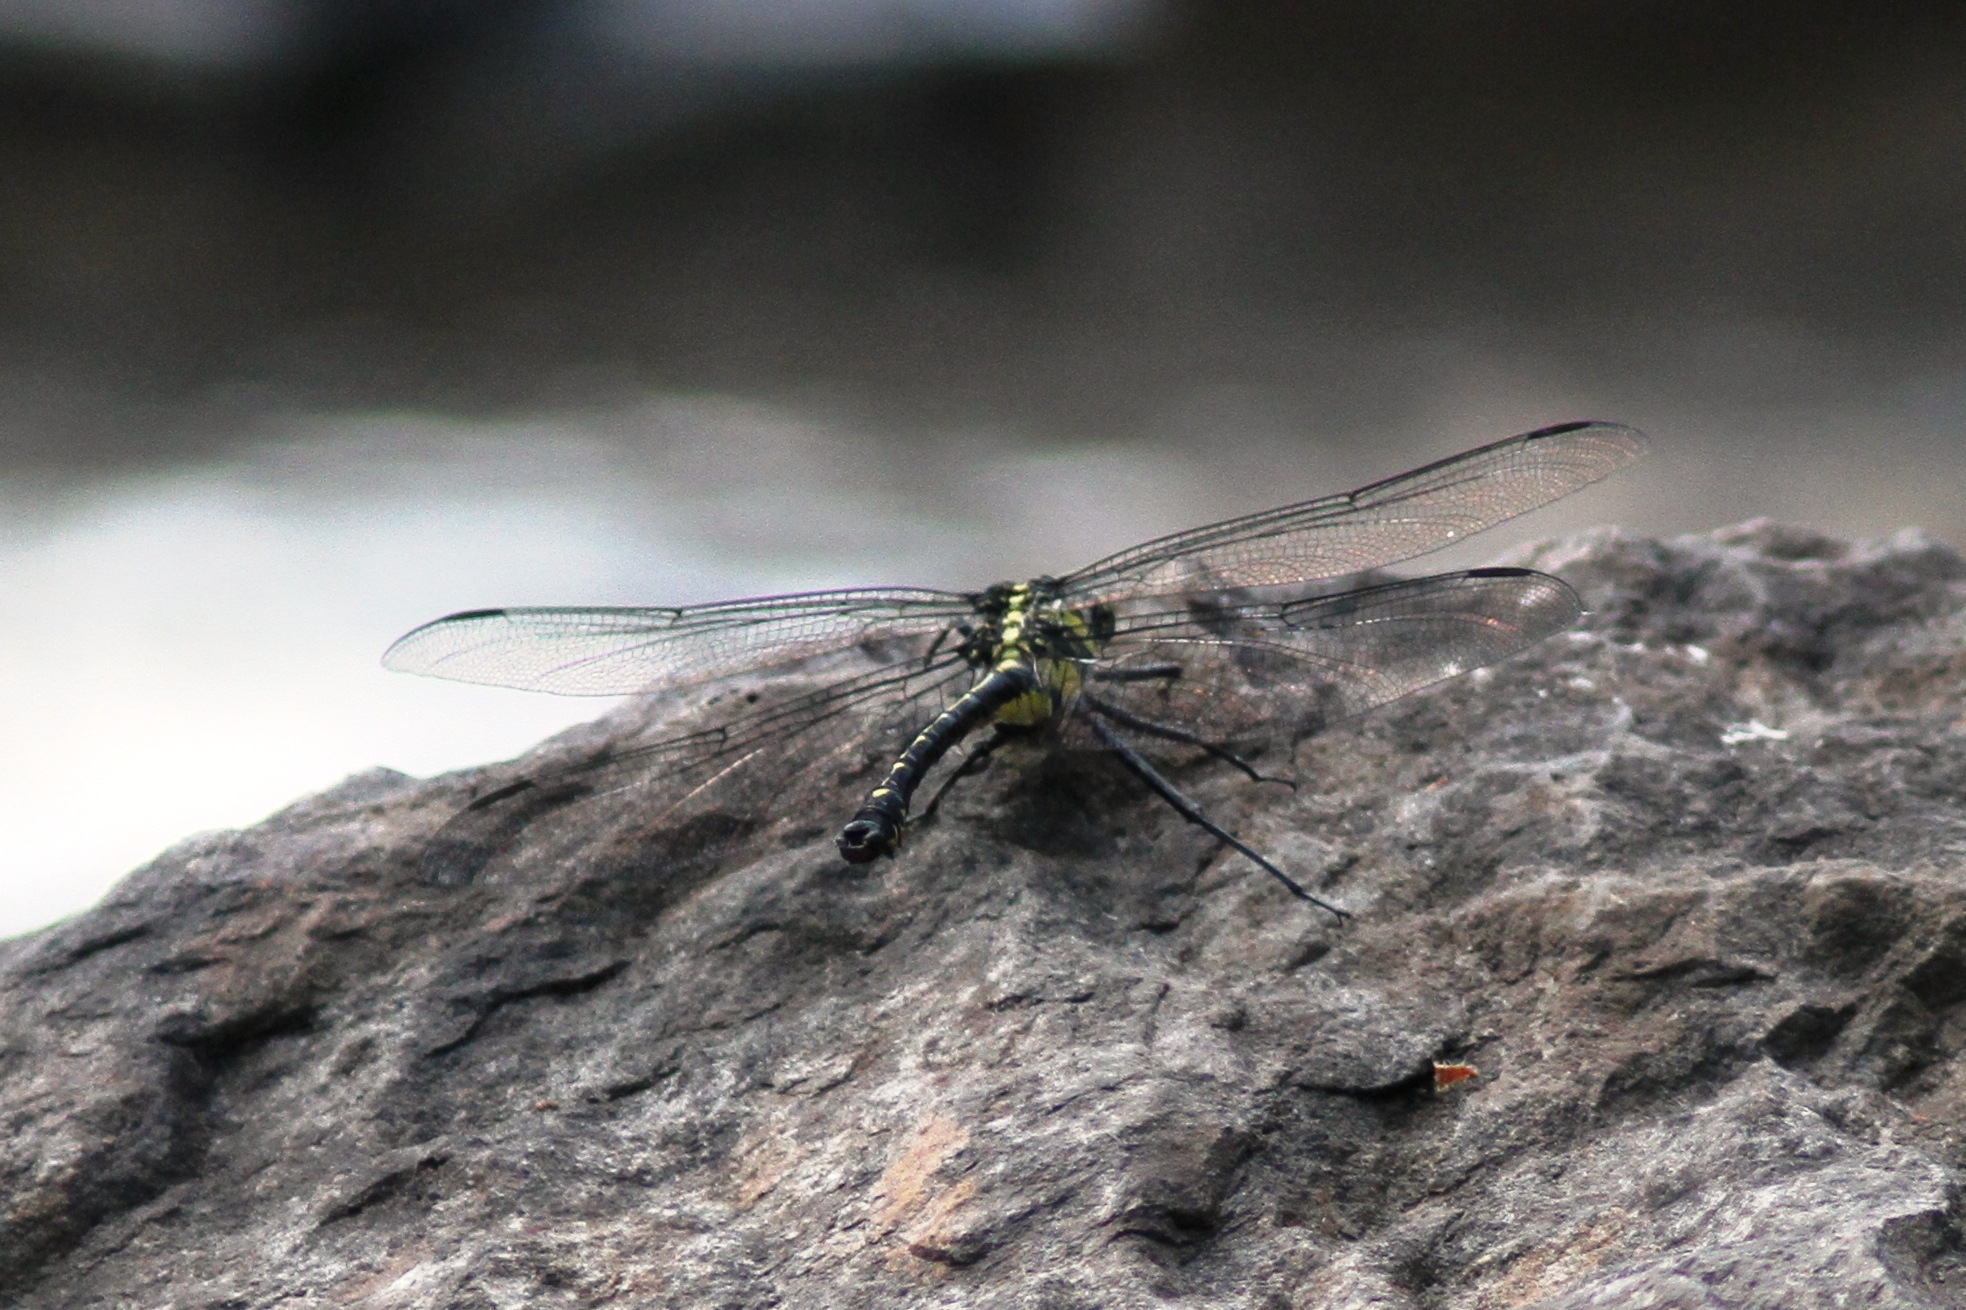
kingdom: Animalia
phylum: Arthropoda
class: Insecta
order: Odonata
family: Gomphidae
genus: Hagenius
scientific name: Hagenius brevistylus
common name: Dragonhunter
